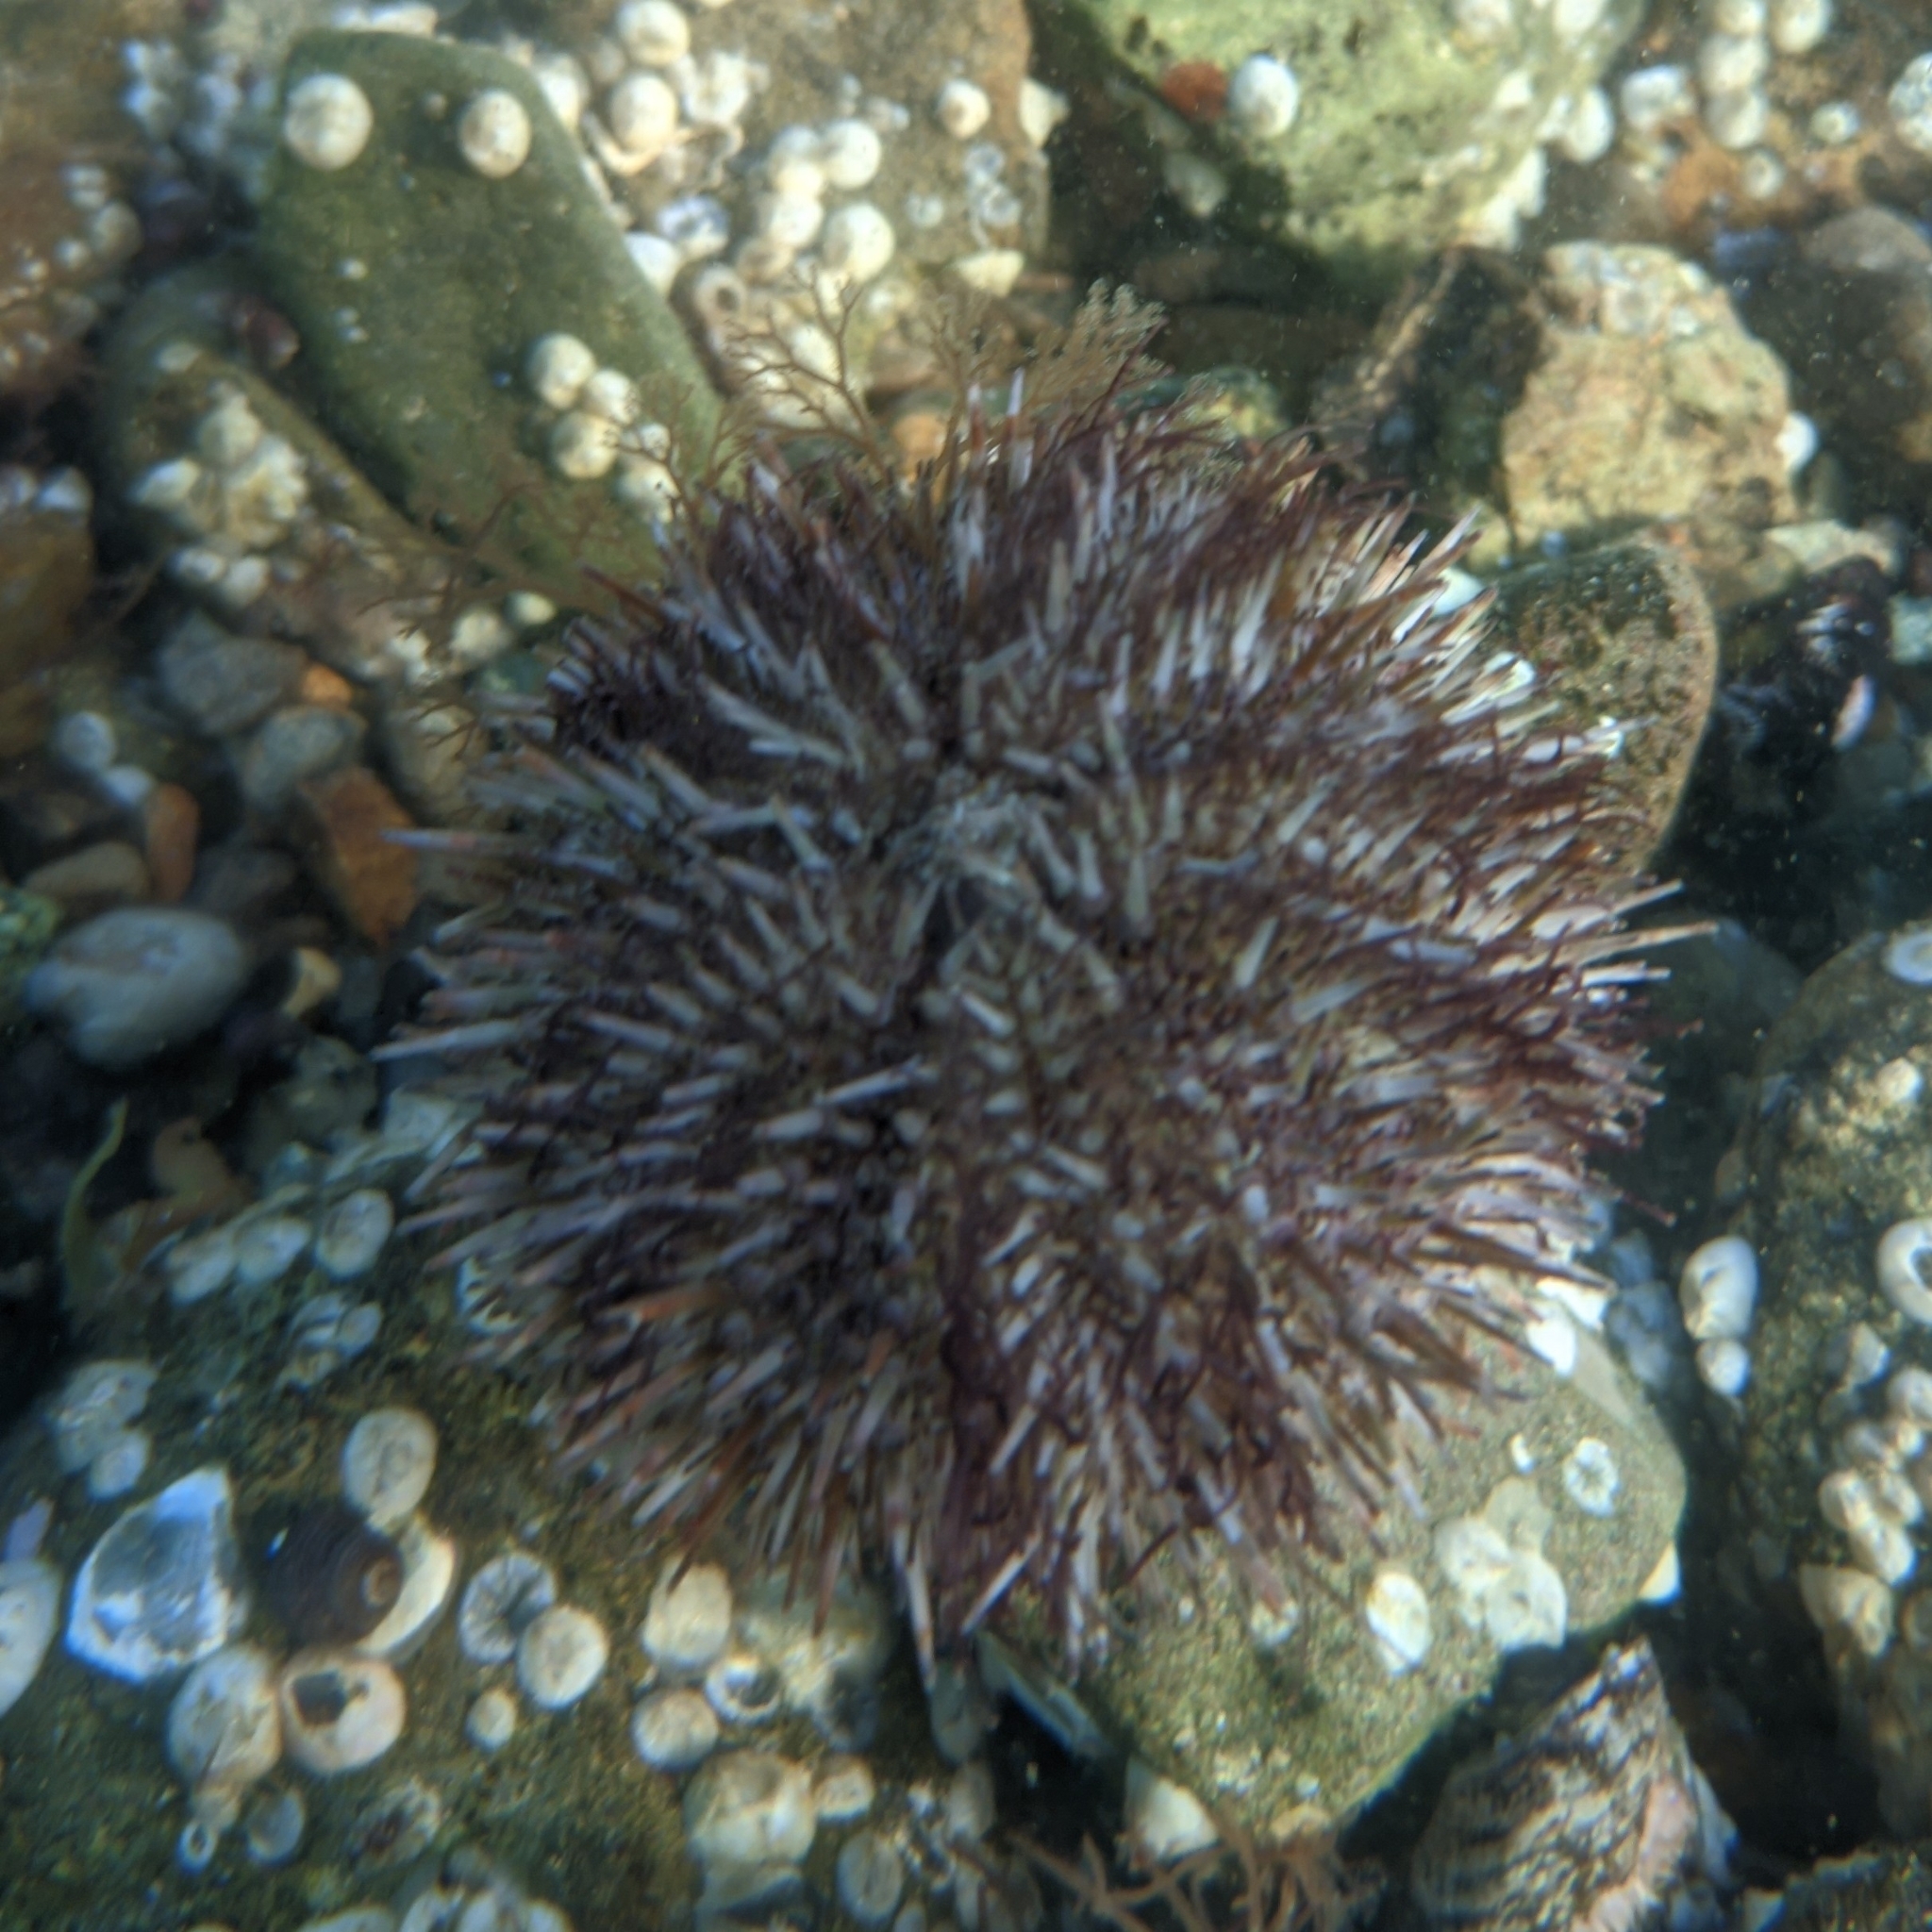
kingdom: Animalia
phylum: Echinodermata
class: Echinoidea
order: Camarodonta
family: Strongylocentrotidae
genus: Strongylocentrotus
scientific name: Strongylocentrotus intermedius
